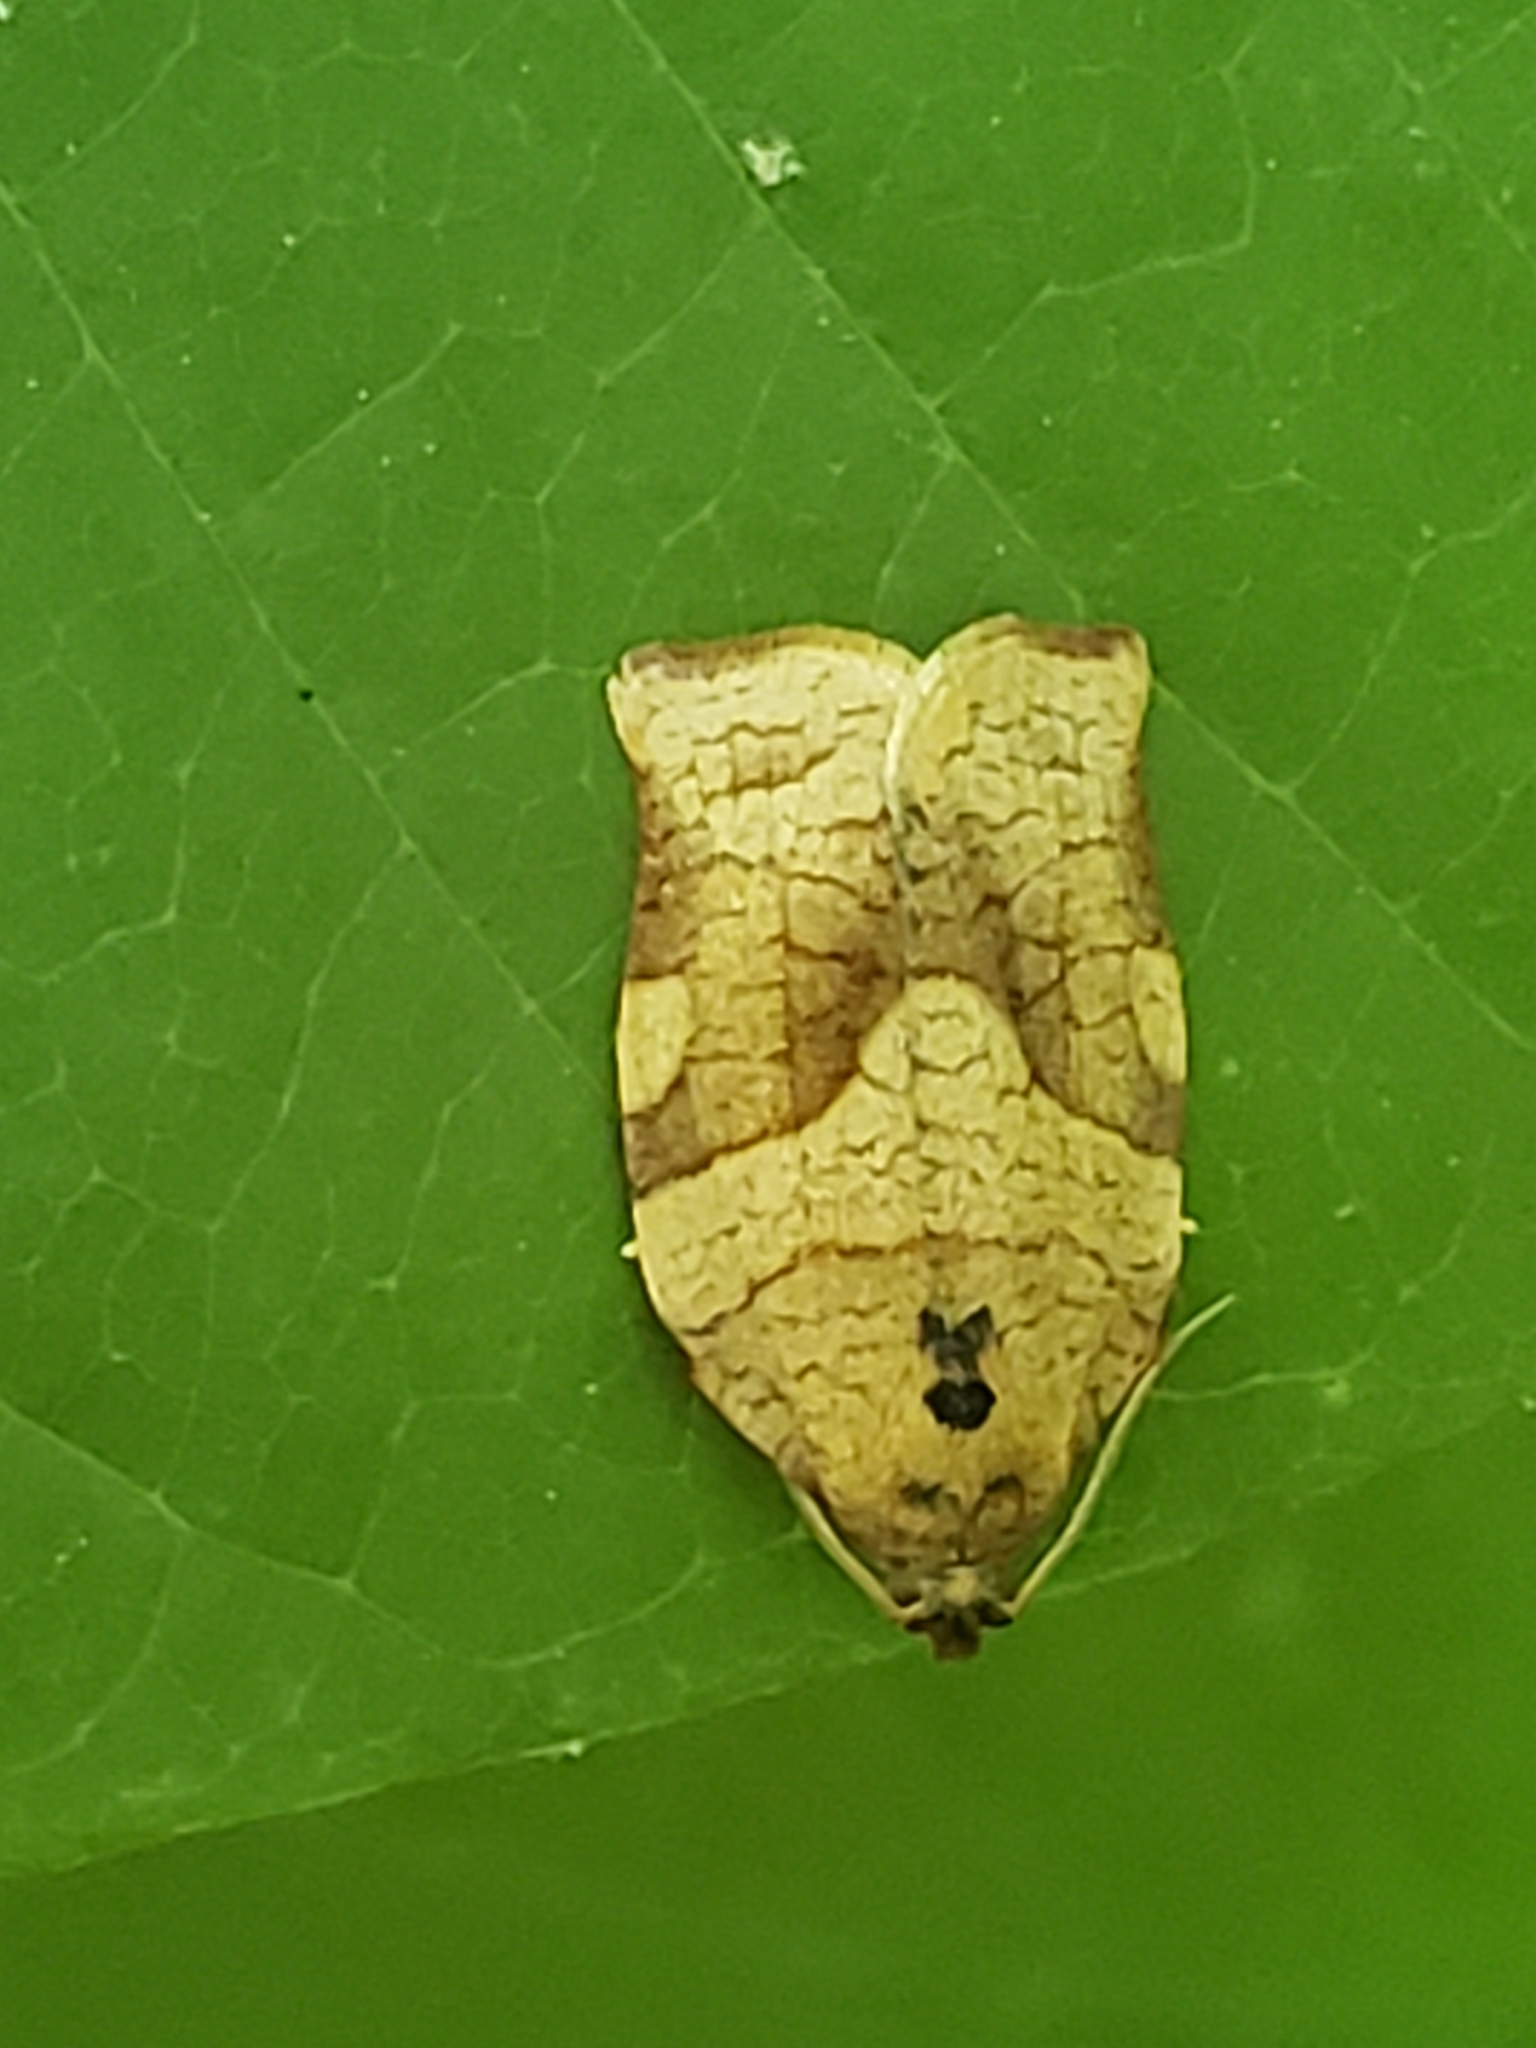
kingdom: Animalia
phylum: Arthropoda
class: Insecta
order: Lepidoptera
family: Tortricidae
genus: Choristoneura
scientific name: Choristoneura rosaceana
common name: Oblique-banded leafroller moth
